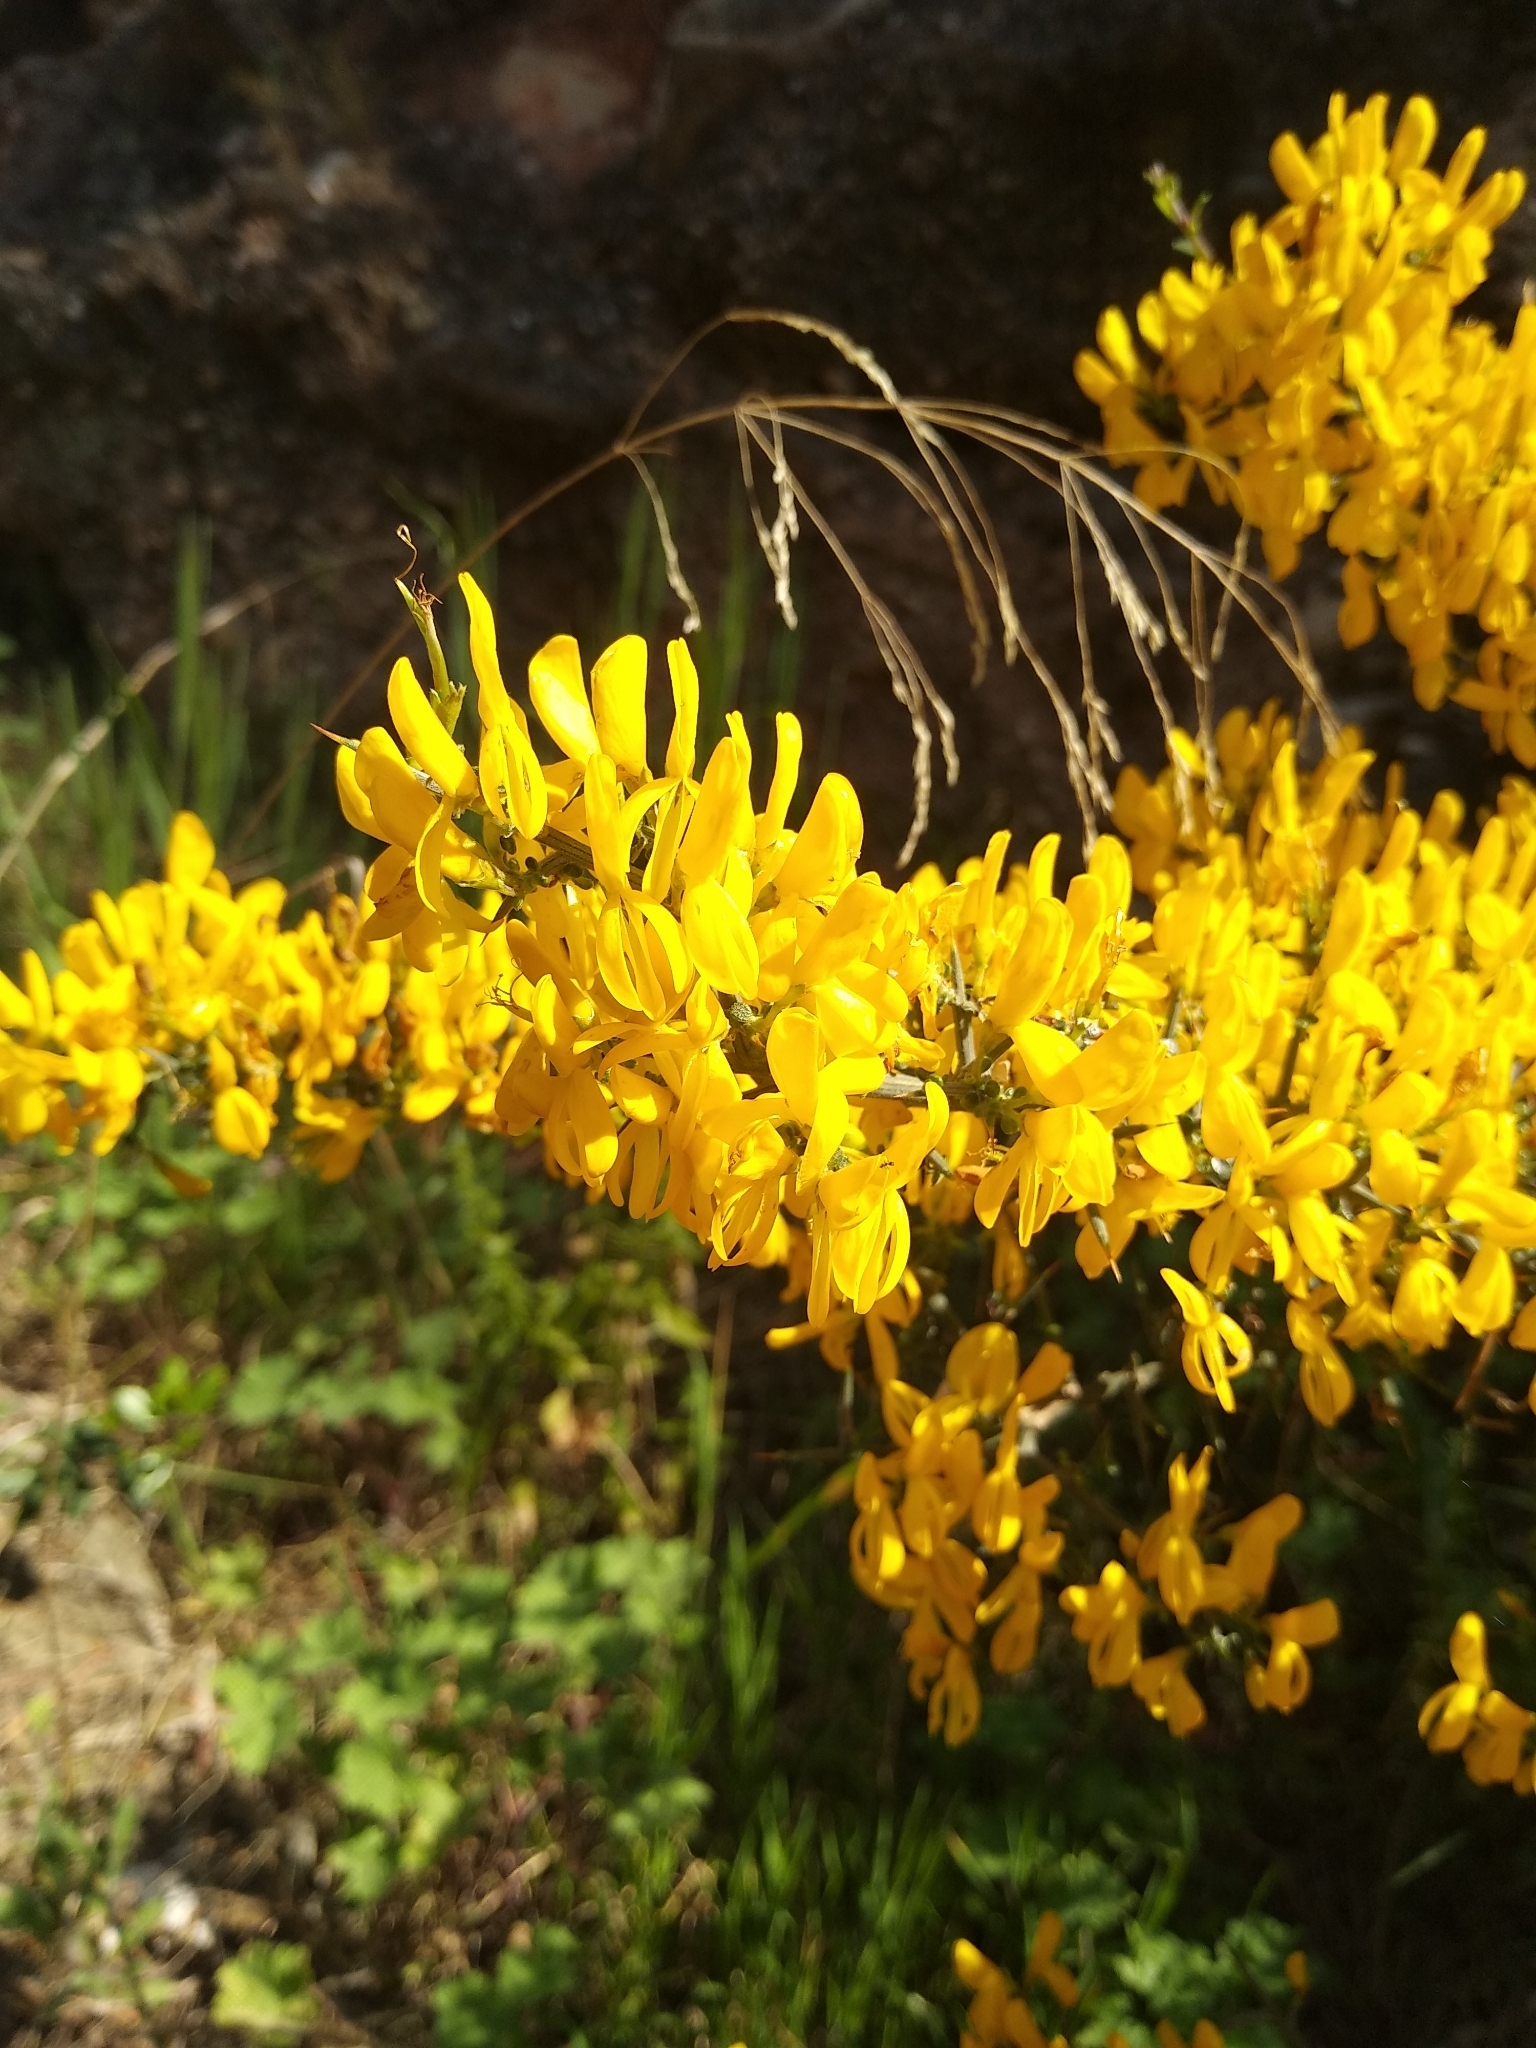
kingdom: Plantae
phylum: Tracheophyta
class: Magnoliopsida
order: Fabales
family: Fabaceae
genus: Genista
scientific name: Genista scorpius
